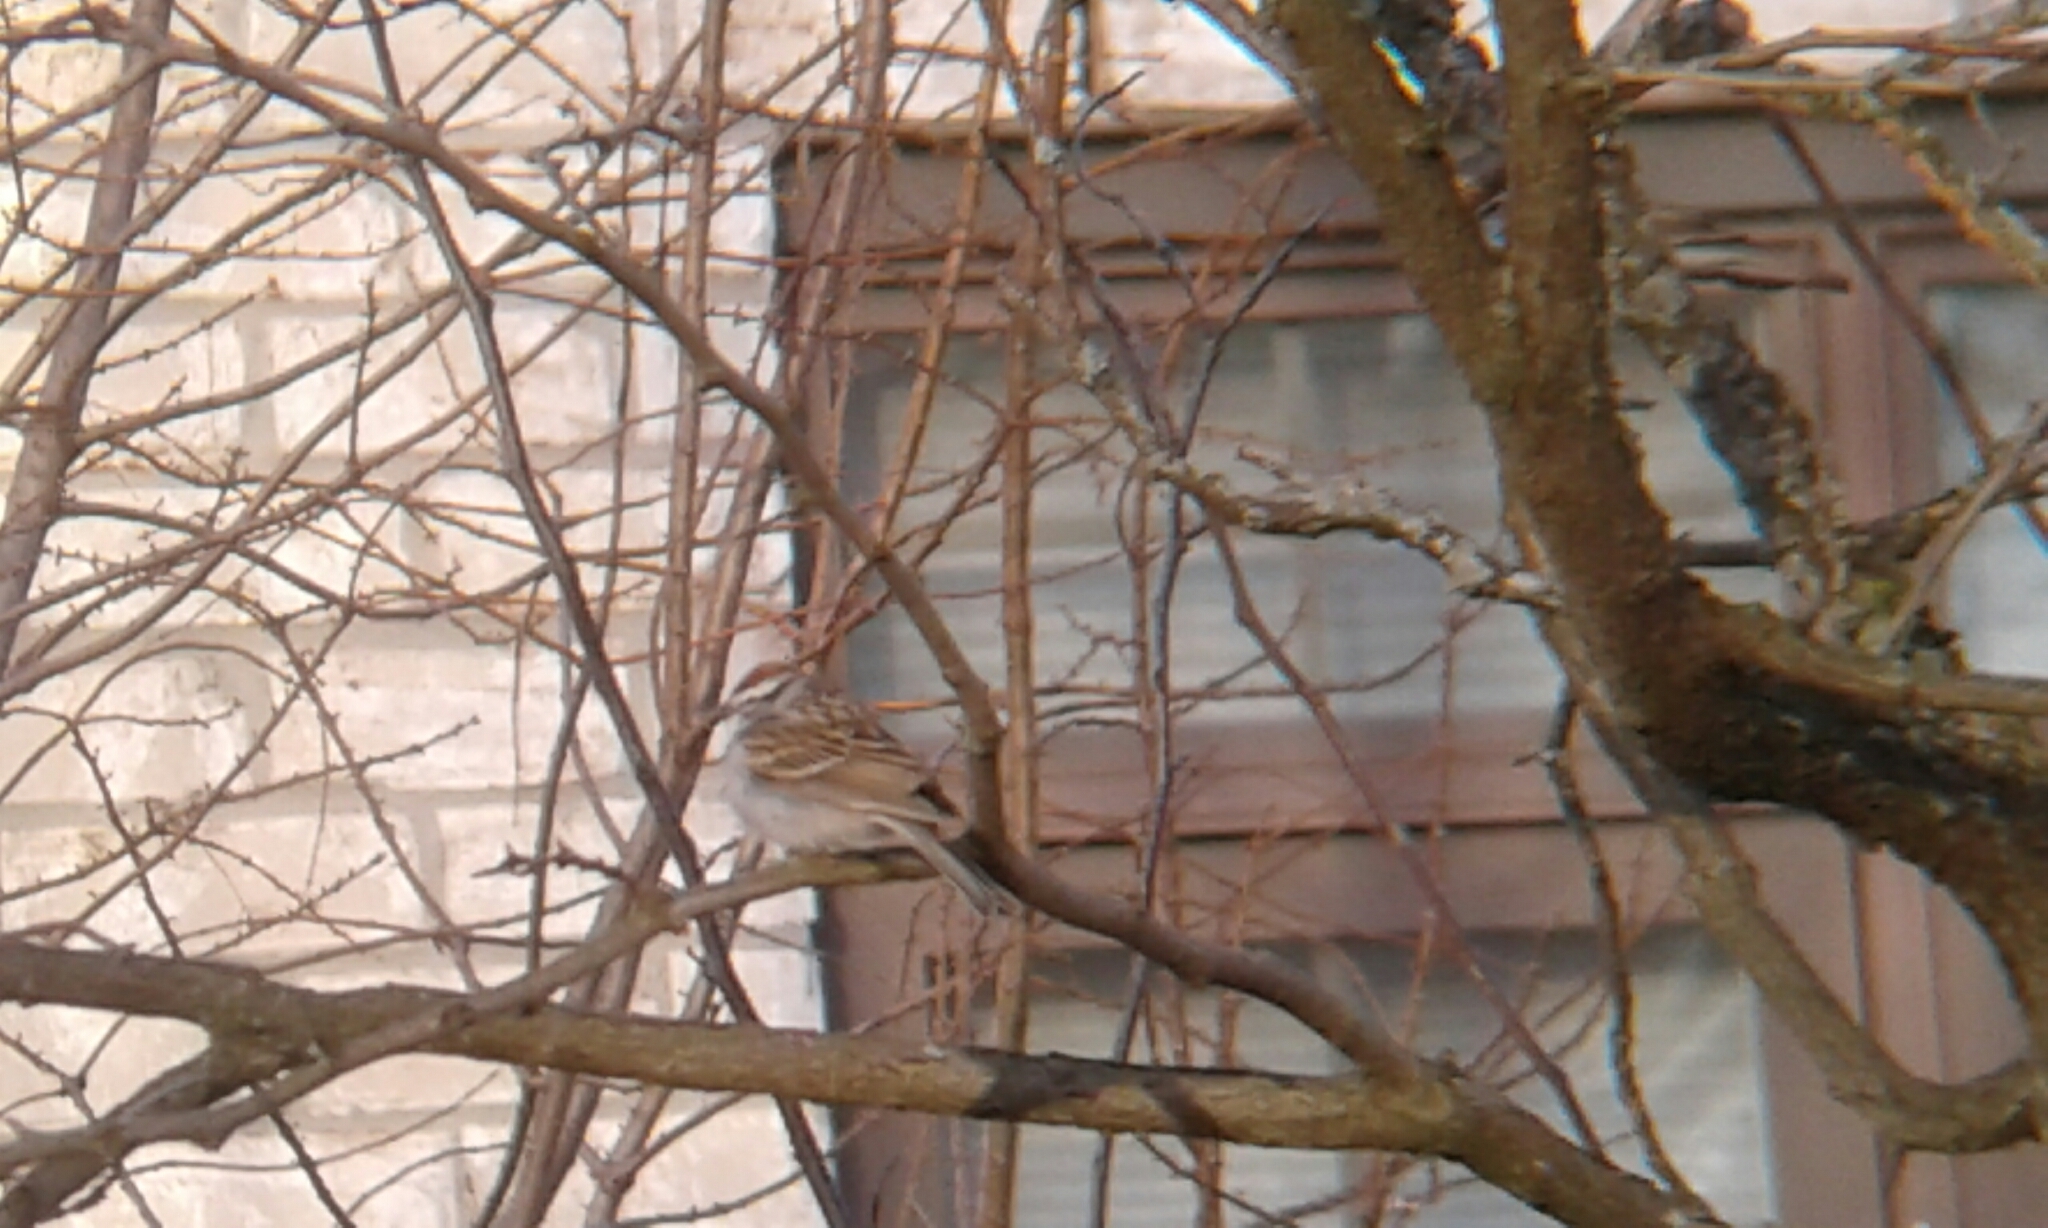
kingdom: Animalia
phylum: Chordata
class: Aves
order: Passeriformes
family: Passerellidae
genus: Spizella
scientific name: Spizella passerina
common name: Chipping sparrow
